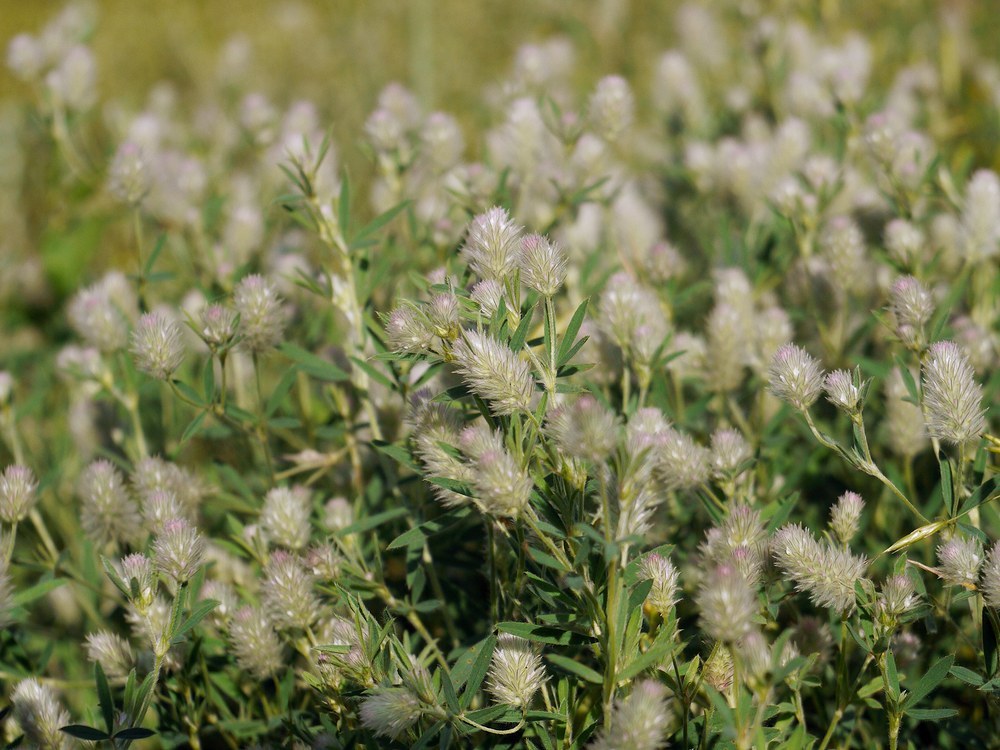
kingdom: Plantae
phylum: Tracheophyta
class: Magnoliopsida
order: Fabales
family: Fabaceae
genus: Trifolium
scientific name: Trifolium arvense
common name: Hare's-foot clover
